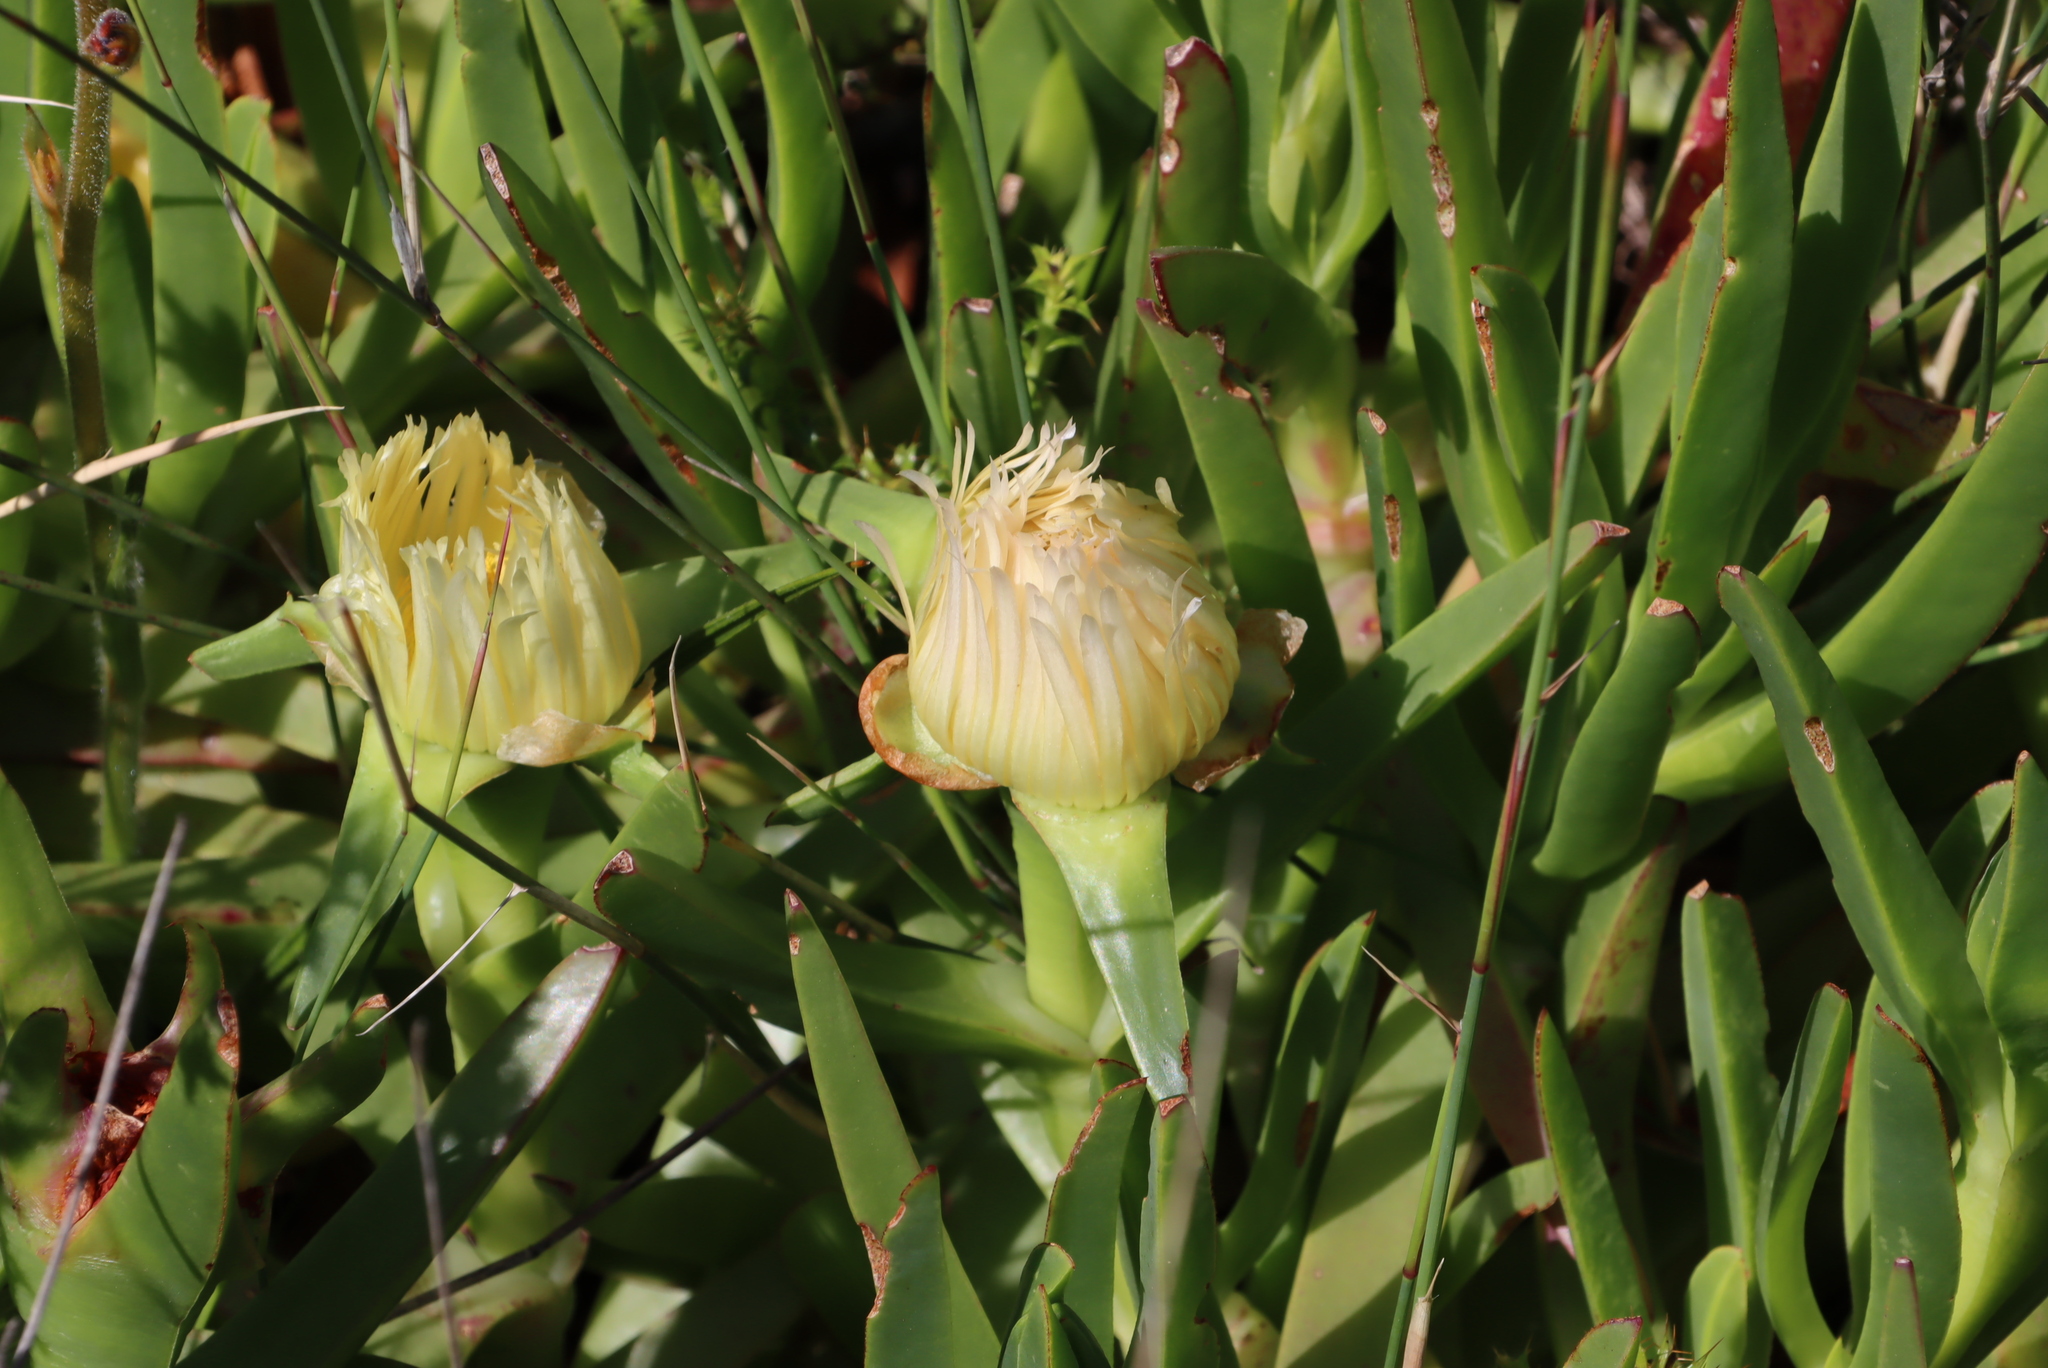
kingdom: Plantae
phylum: Tracheophyta
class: Magnoliopsida
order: Caryophyllales
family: Aizoaceae
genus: Carpobrotus
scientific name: Carpobrotus edulis
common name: Hottentot-fig
